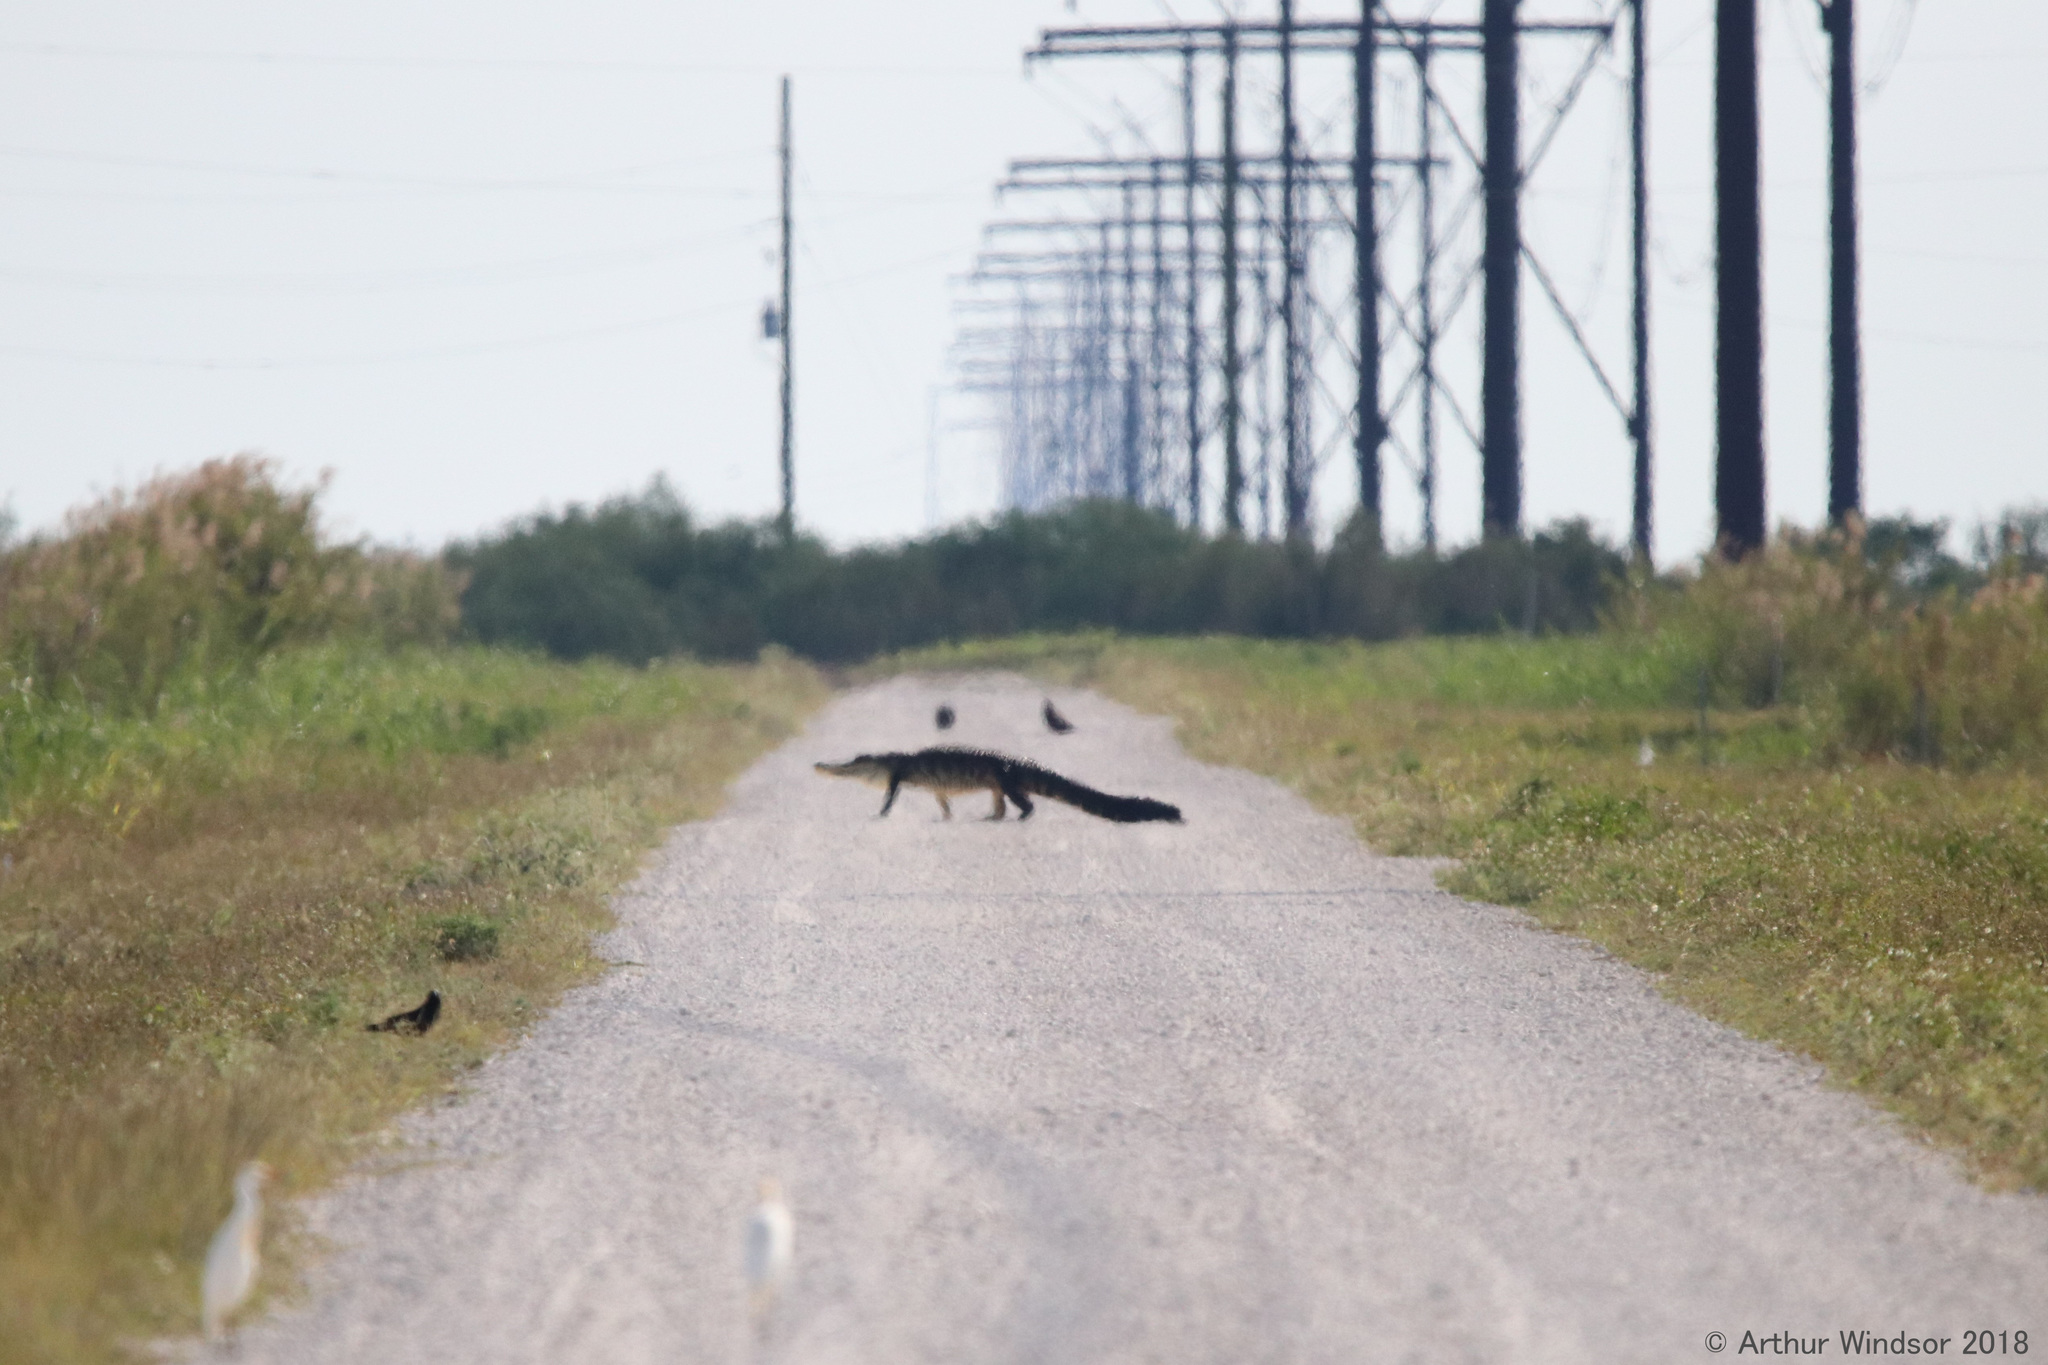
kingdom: Animalia
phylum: Chordata
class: Crocodylia
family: Alligatoridae
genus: Alligator
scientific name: Alligator mississippiensis
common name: American alligator
